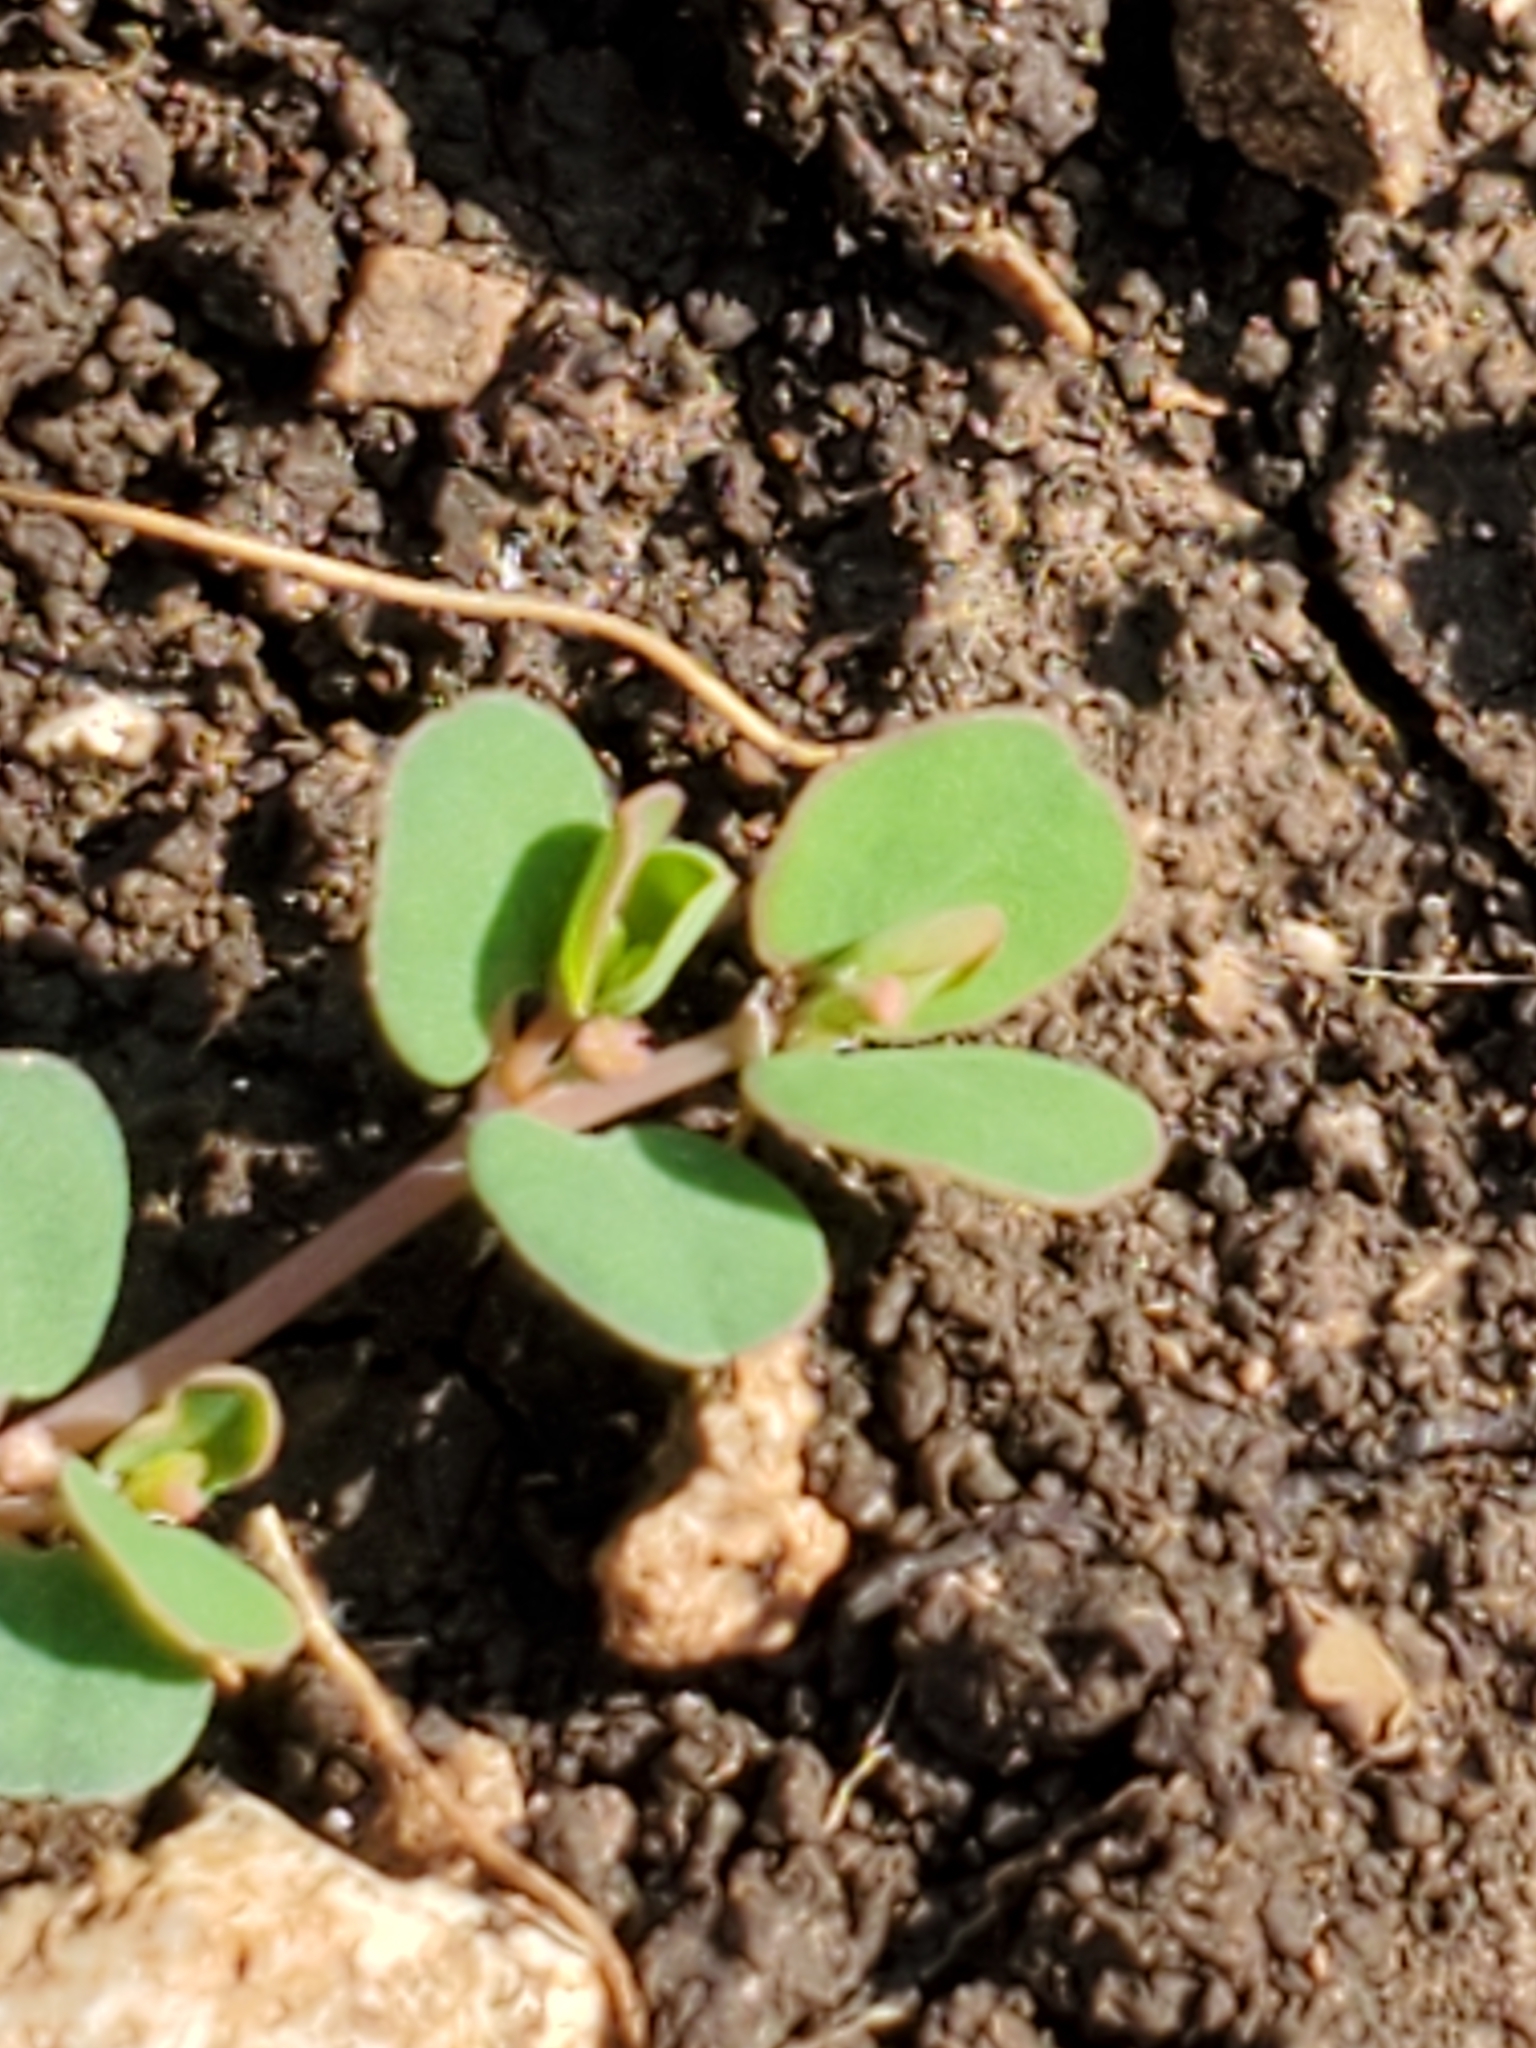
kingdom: Plantae
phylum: Tracheophyta
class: Magnoliopsida
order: Malpighiales
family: Euphorbiaceae
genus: Euphorbia
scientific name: Euphorbia serpens
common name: Matted sandmat
